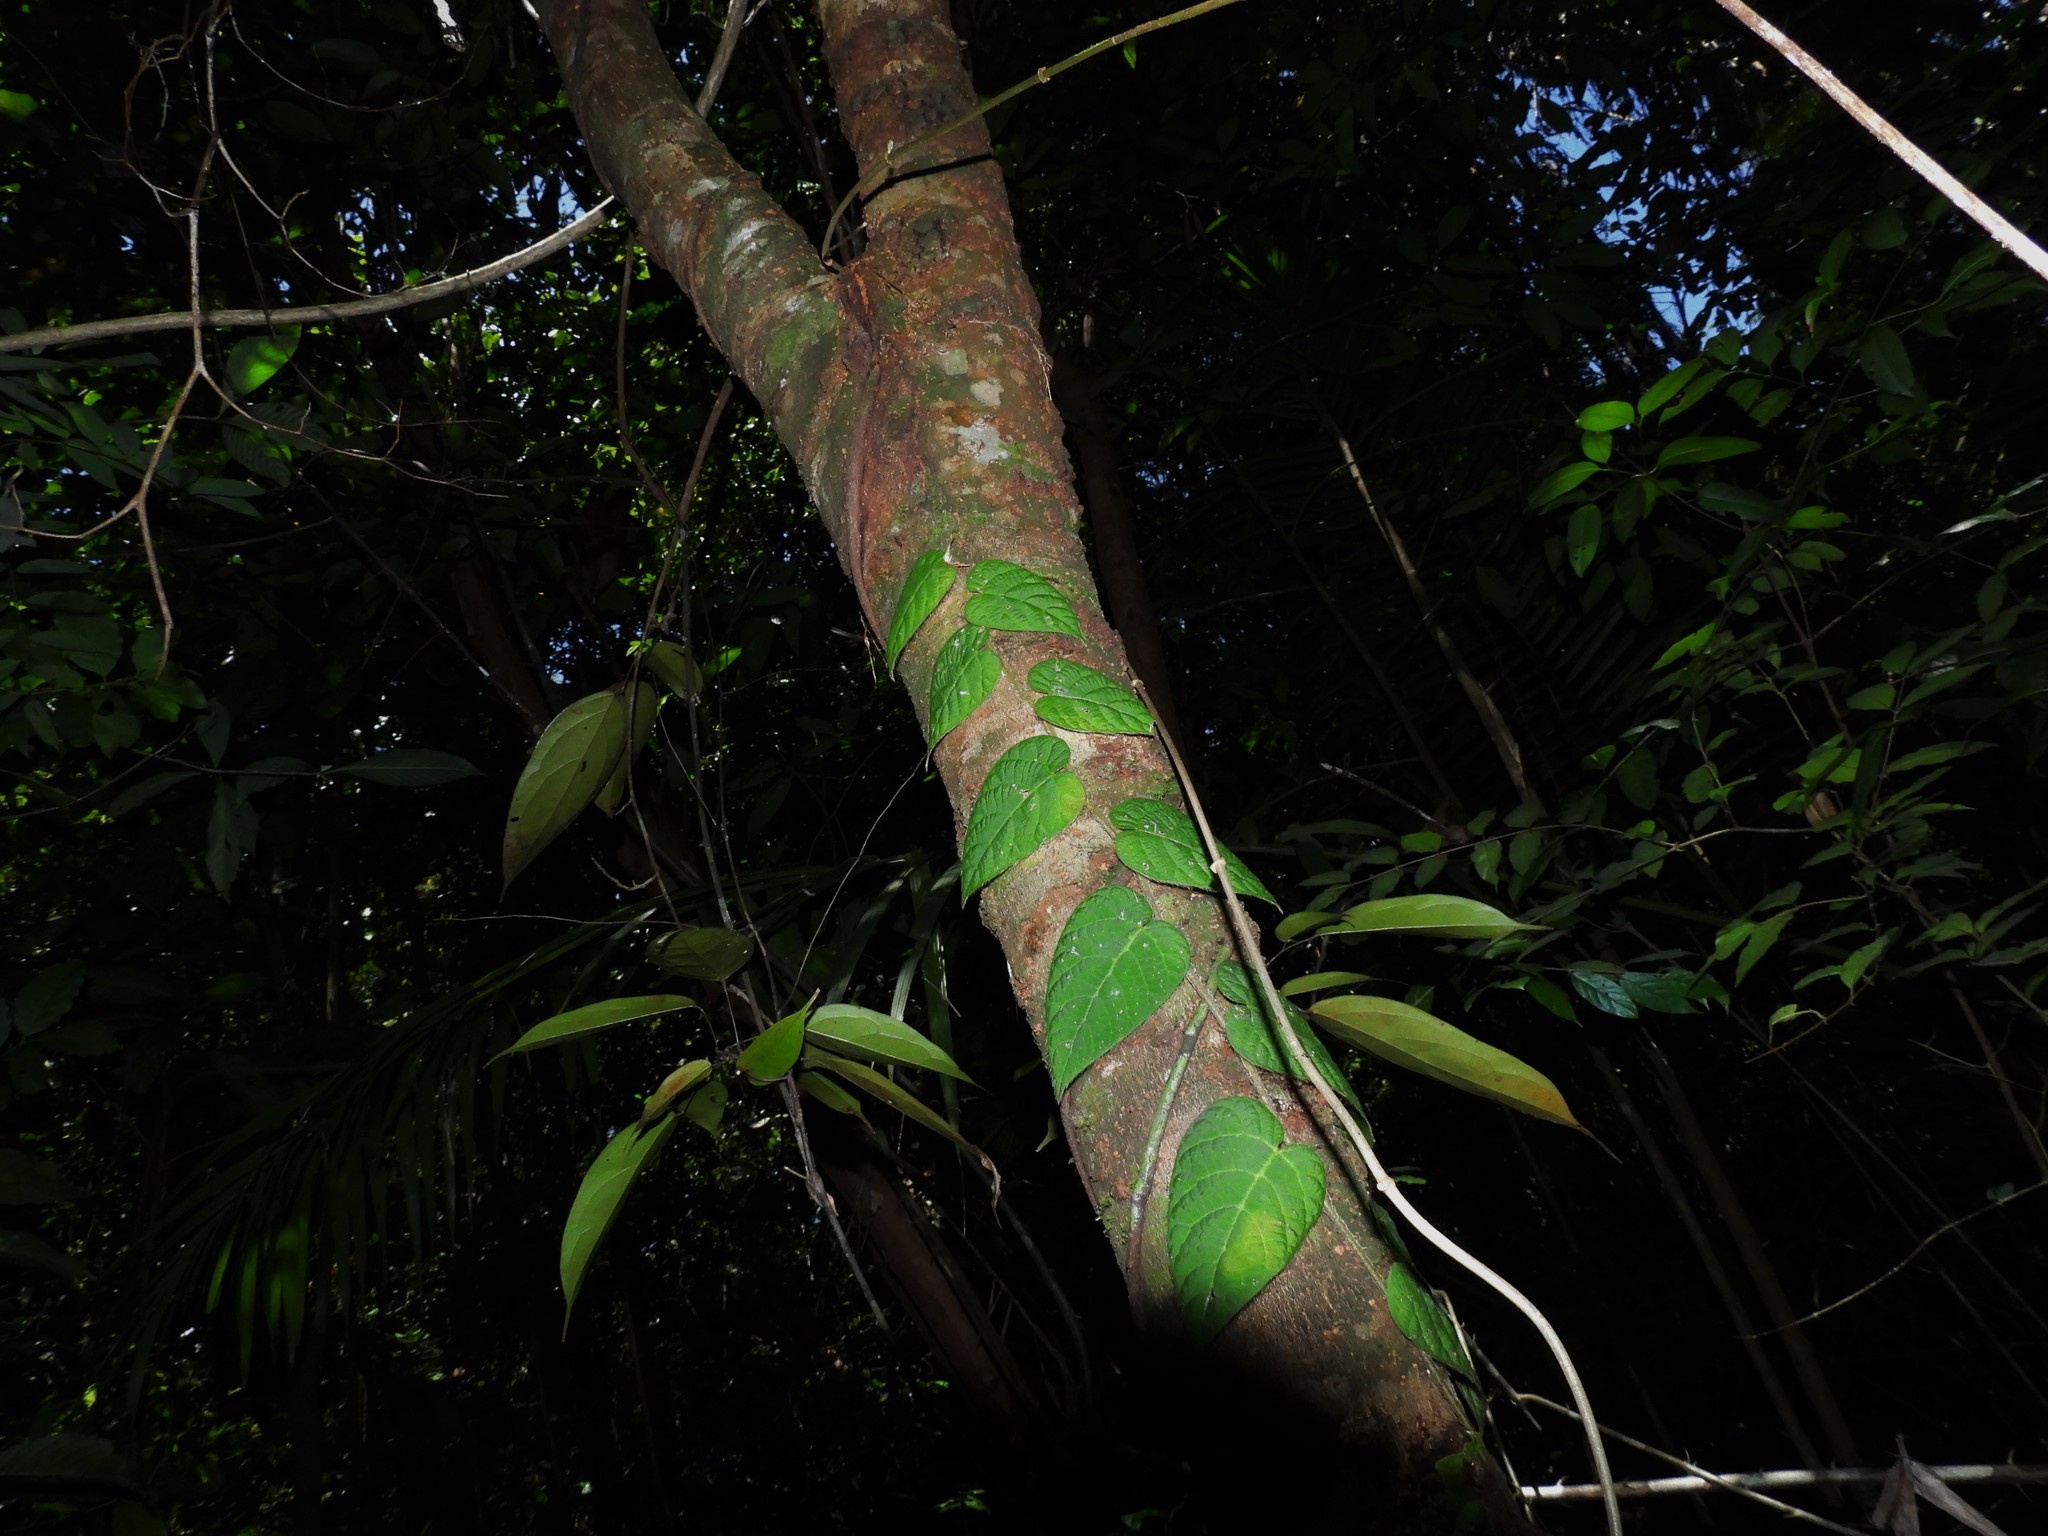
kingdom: Plantae
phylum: Tracheophyta
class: Magnoliopsida
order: Rosales
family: Moraceae
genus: Ficus
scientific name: Ficus villosa
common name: Villous fig
